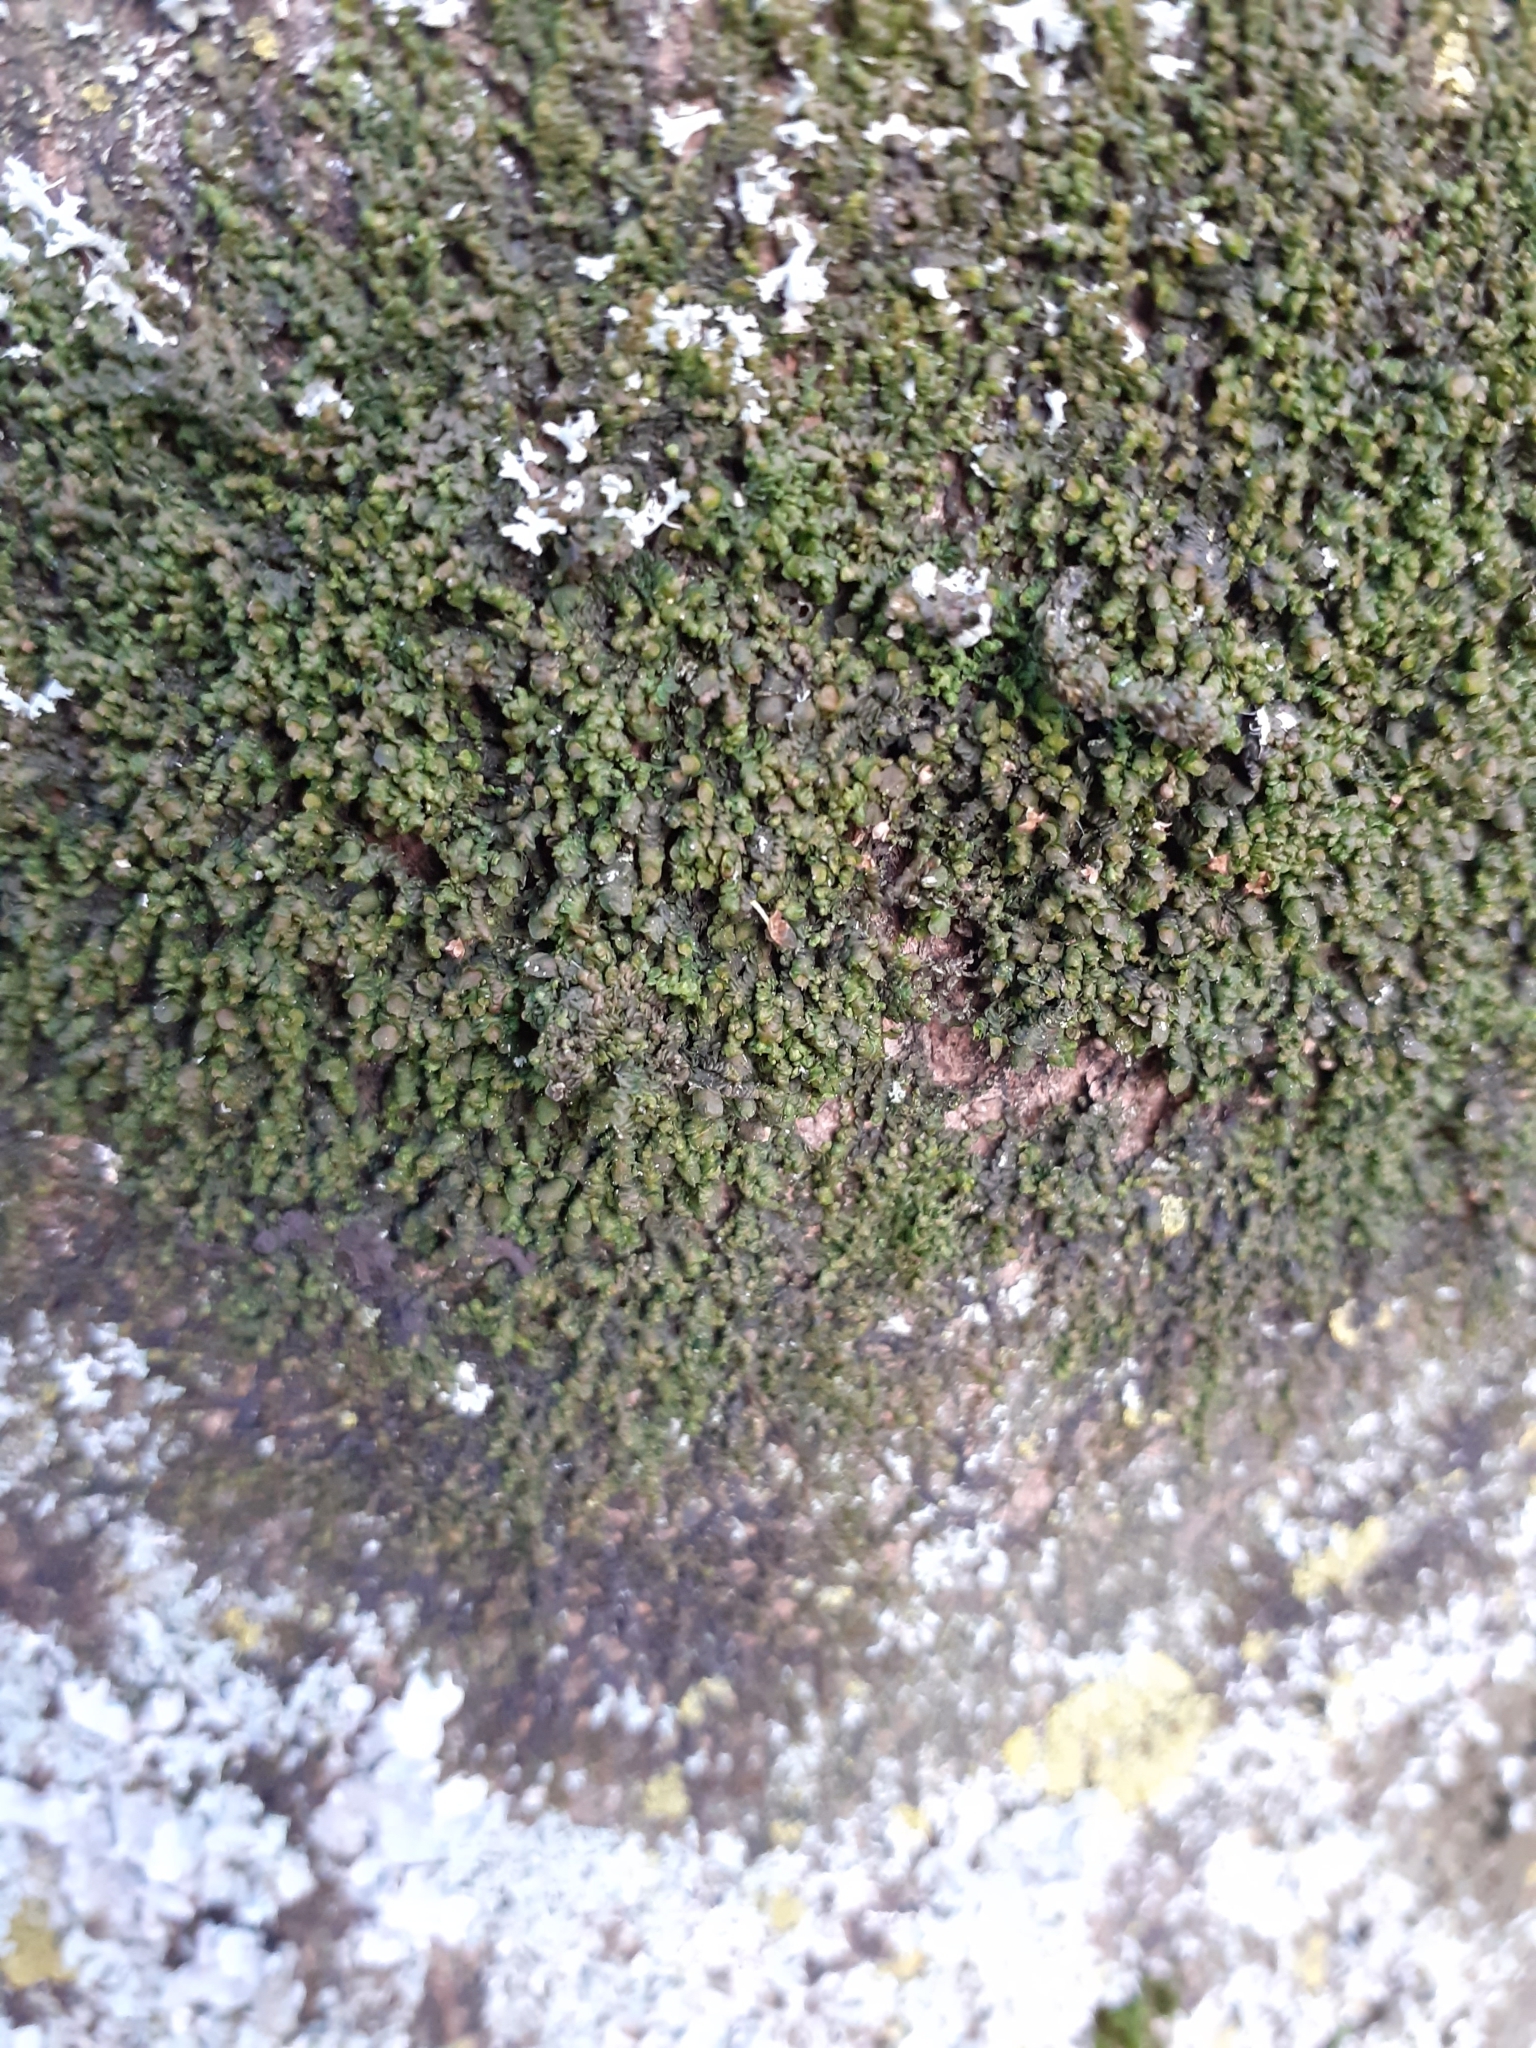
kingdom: Plantae
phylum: Marchantiophyta
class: Jungermanniopsida
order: Porellales
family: Frullaniaceae
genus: Frullania
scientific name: Frullania dilatata
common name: Dilated scalewort
